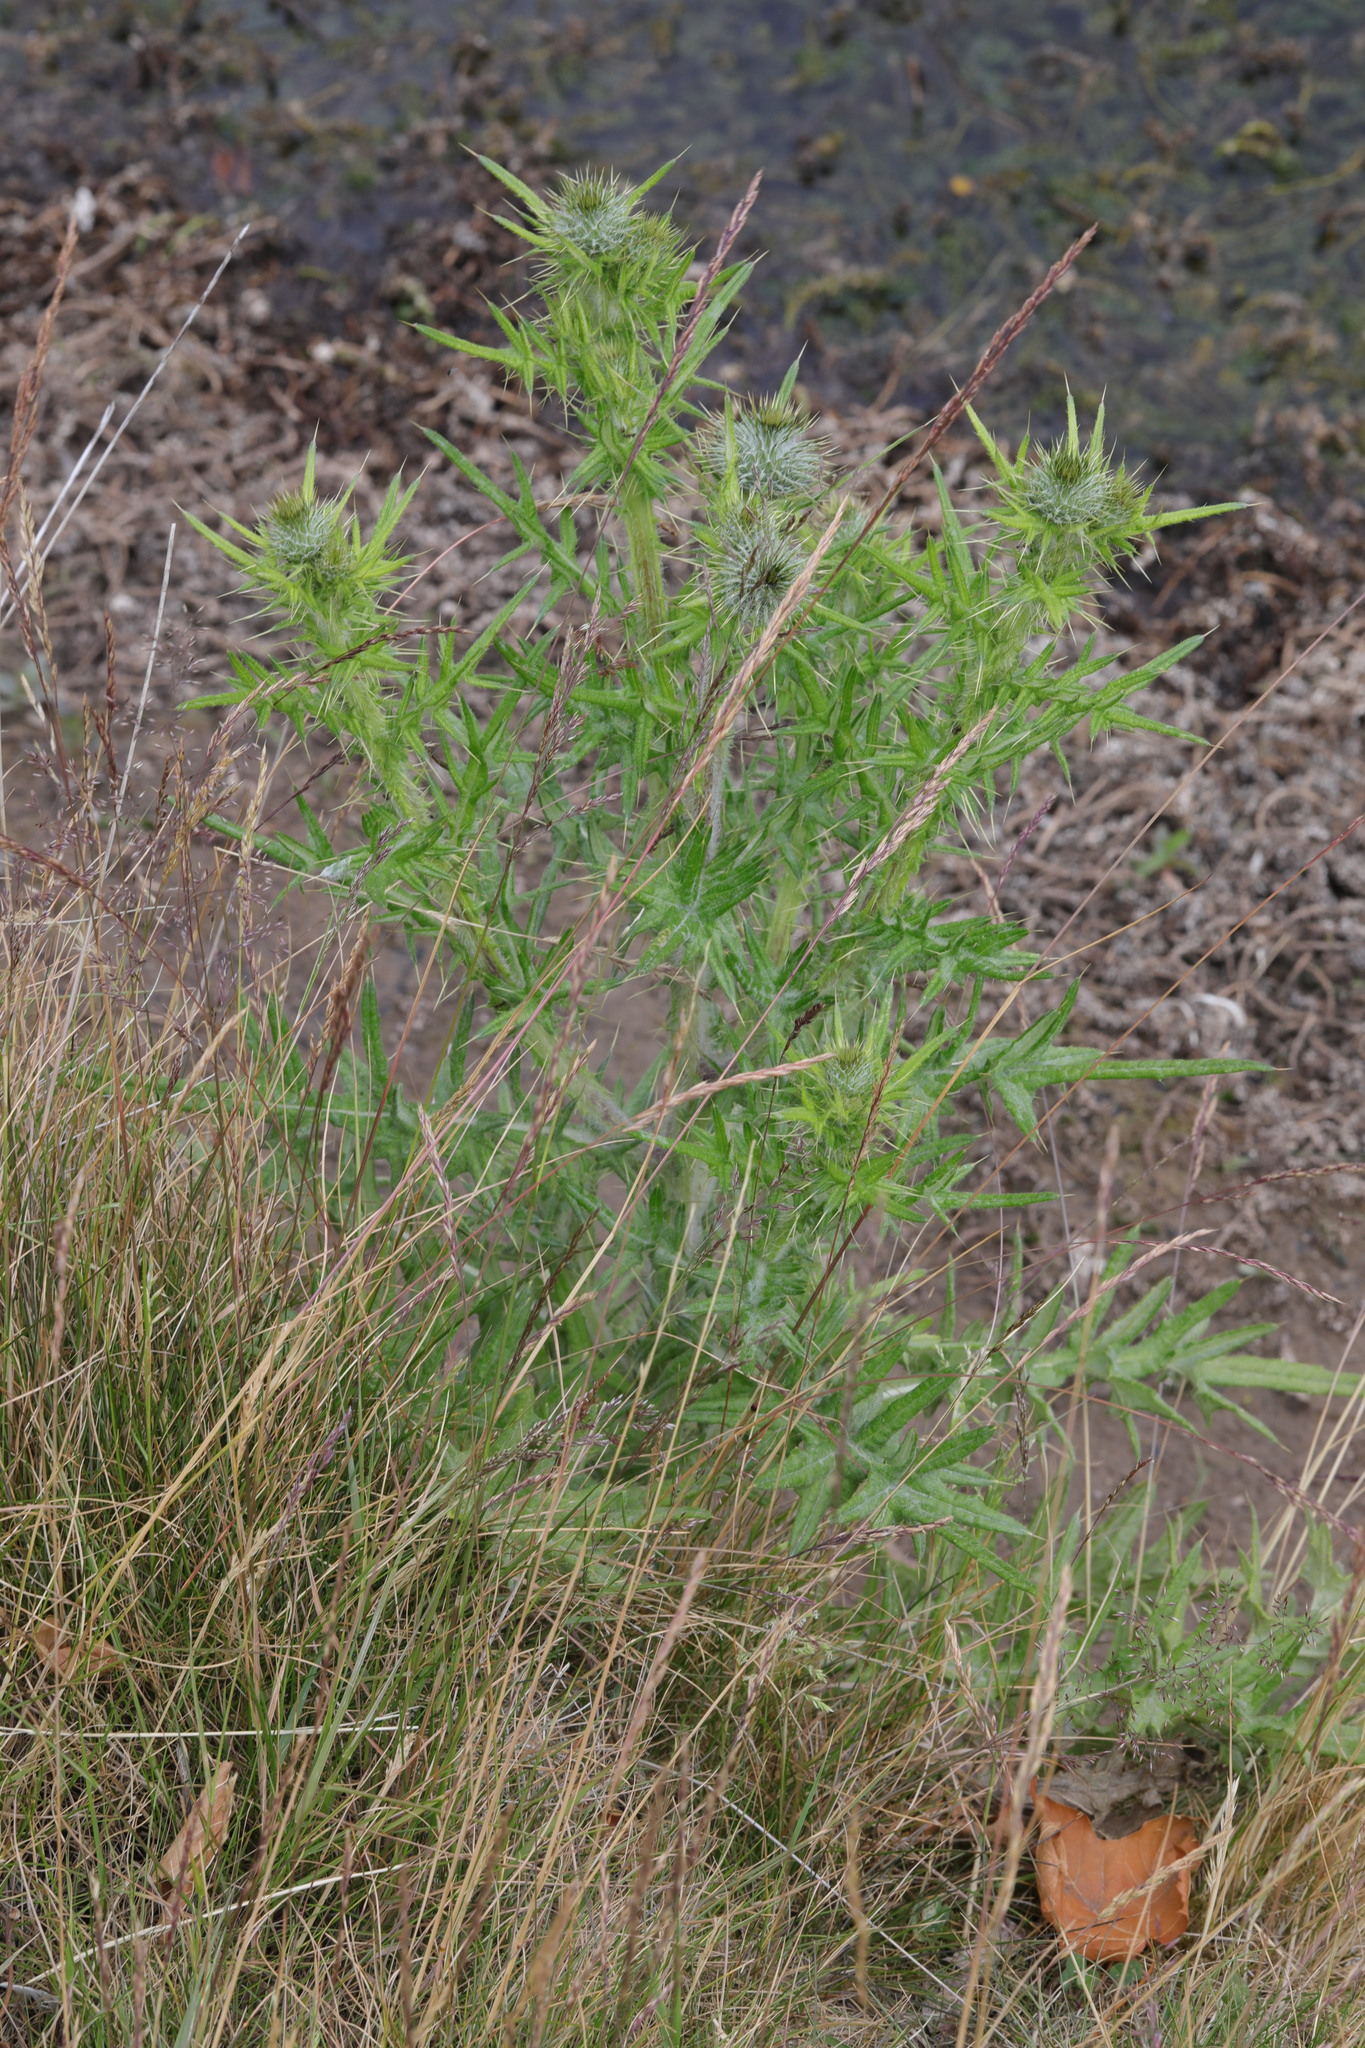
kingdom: Plantae
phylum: Tracheophyta
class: Magnoliopsida
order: Asterales
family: Asteraceae
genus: Cirsium
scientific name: Cirsium vulgare
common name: Bull thistle
